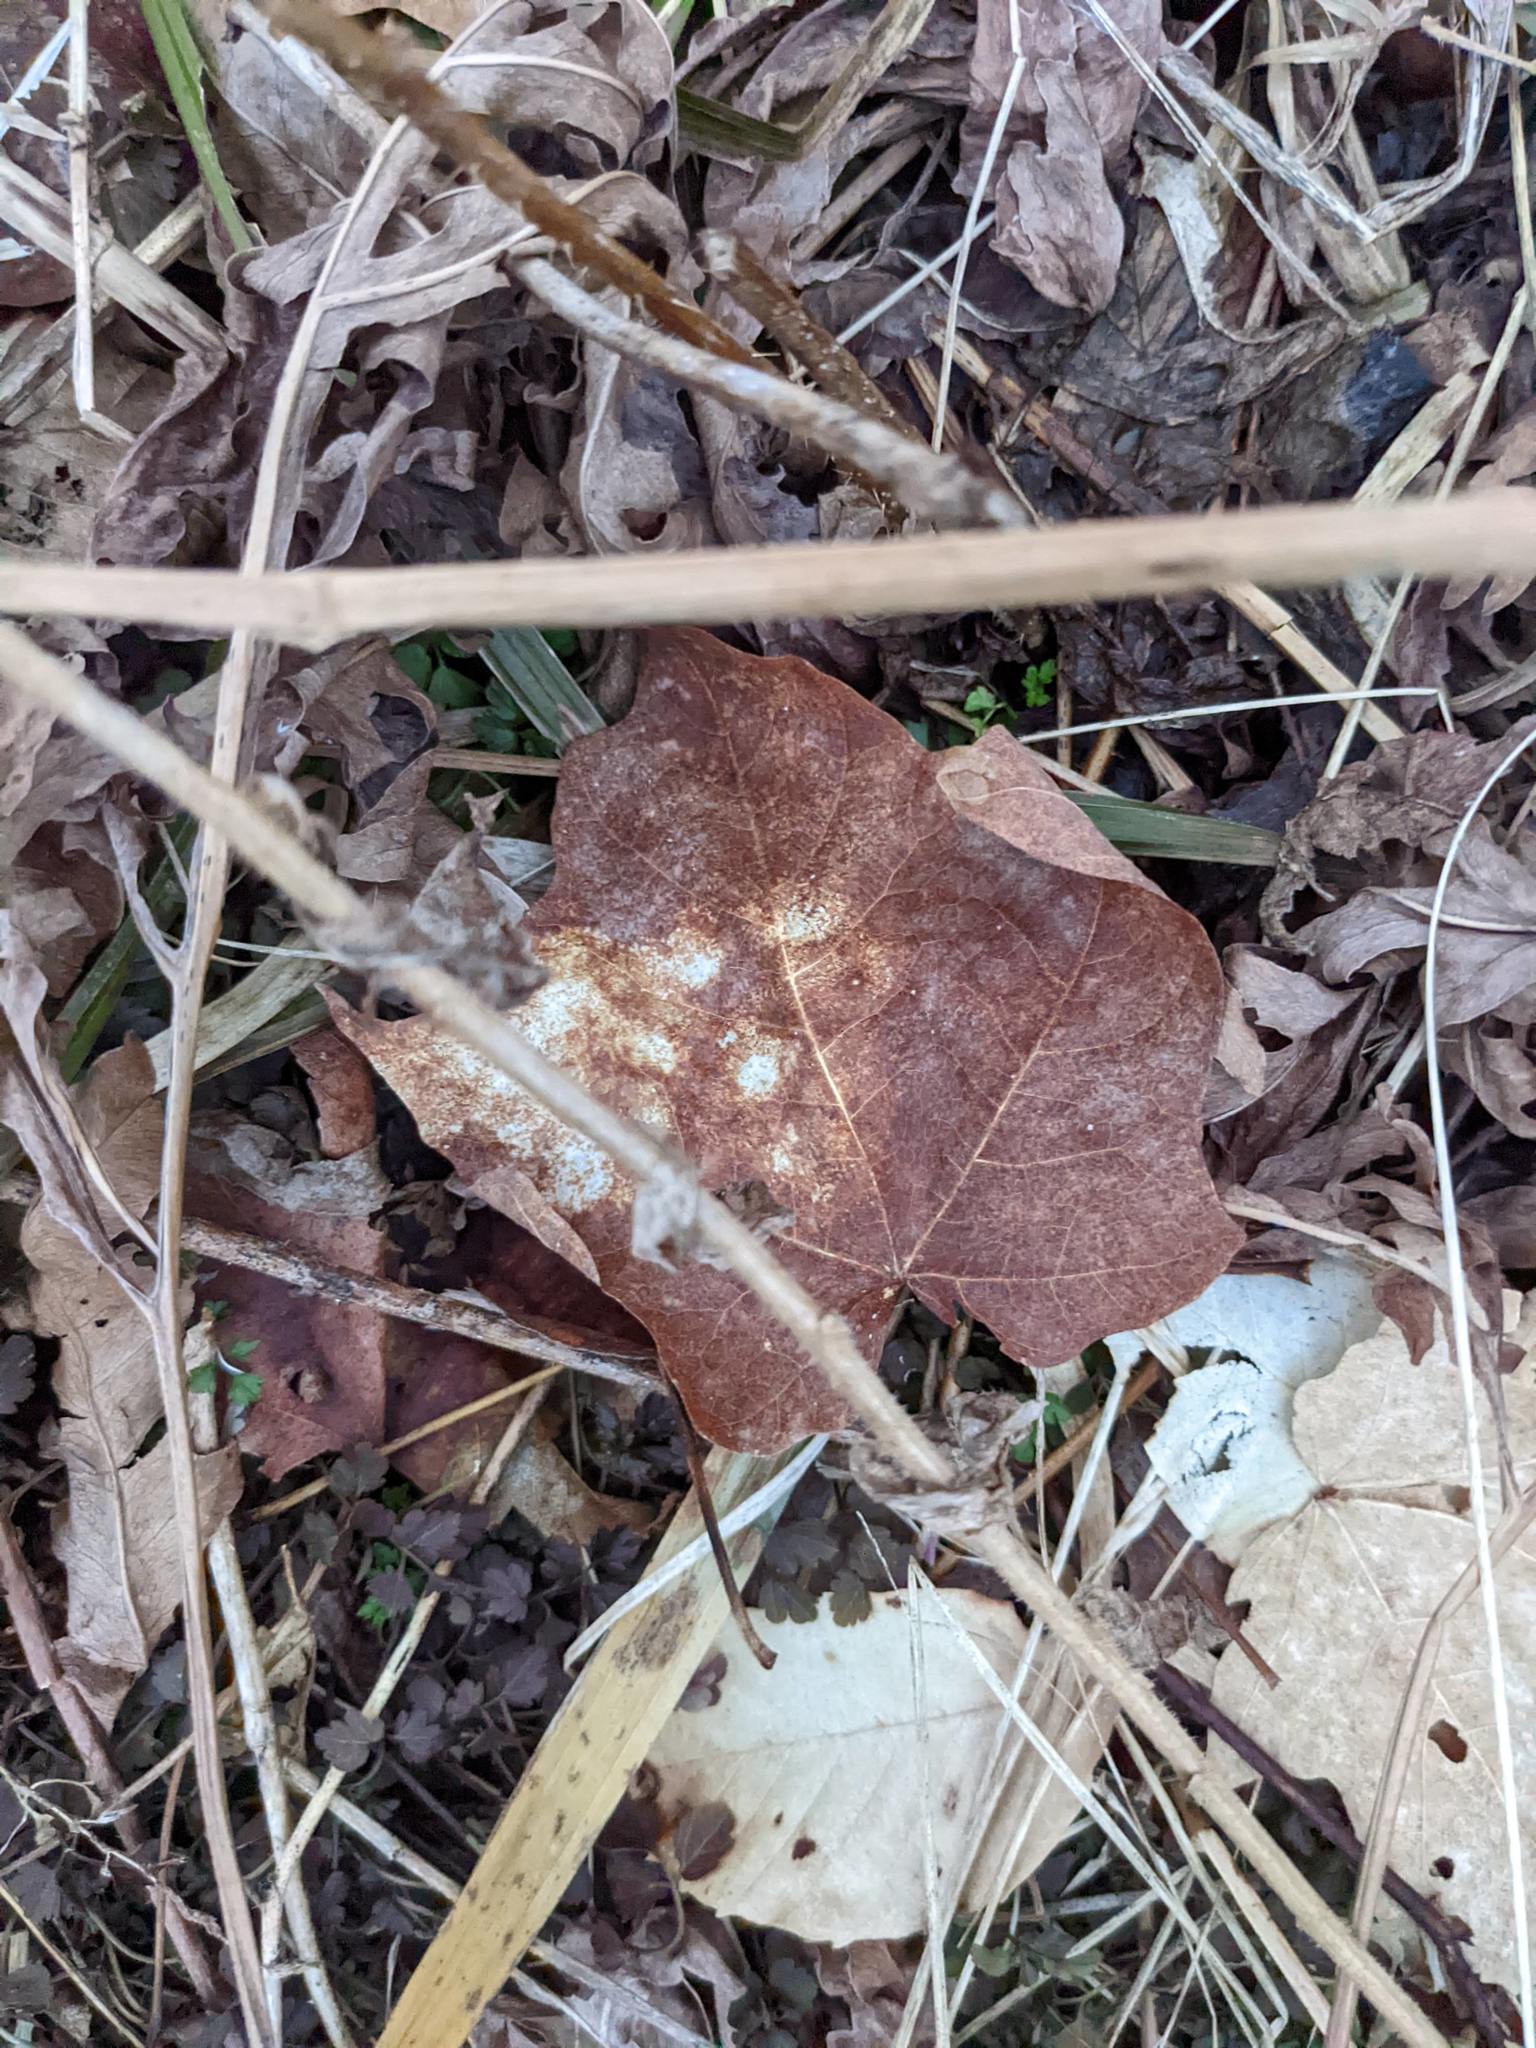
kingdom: Plantae
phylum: Tracheophyta
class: Magnoliopsida
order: Sapindales
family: Sapindaceae
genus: Acer
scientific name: Acer saccharum
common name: Sugar maple
